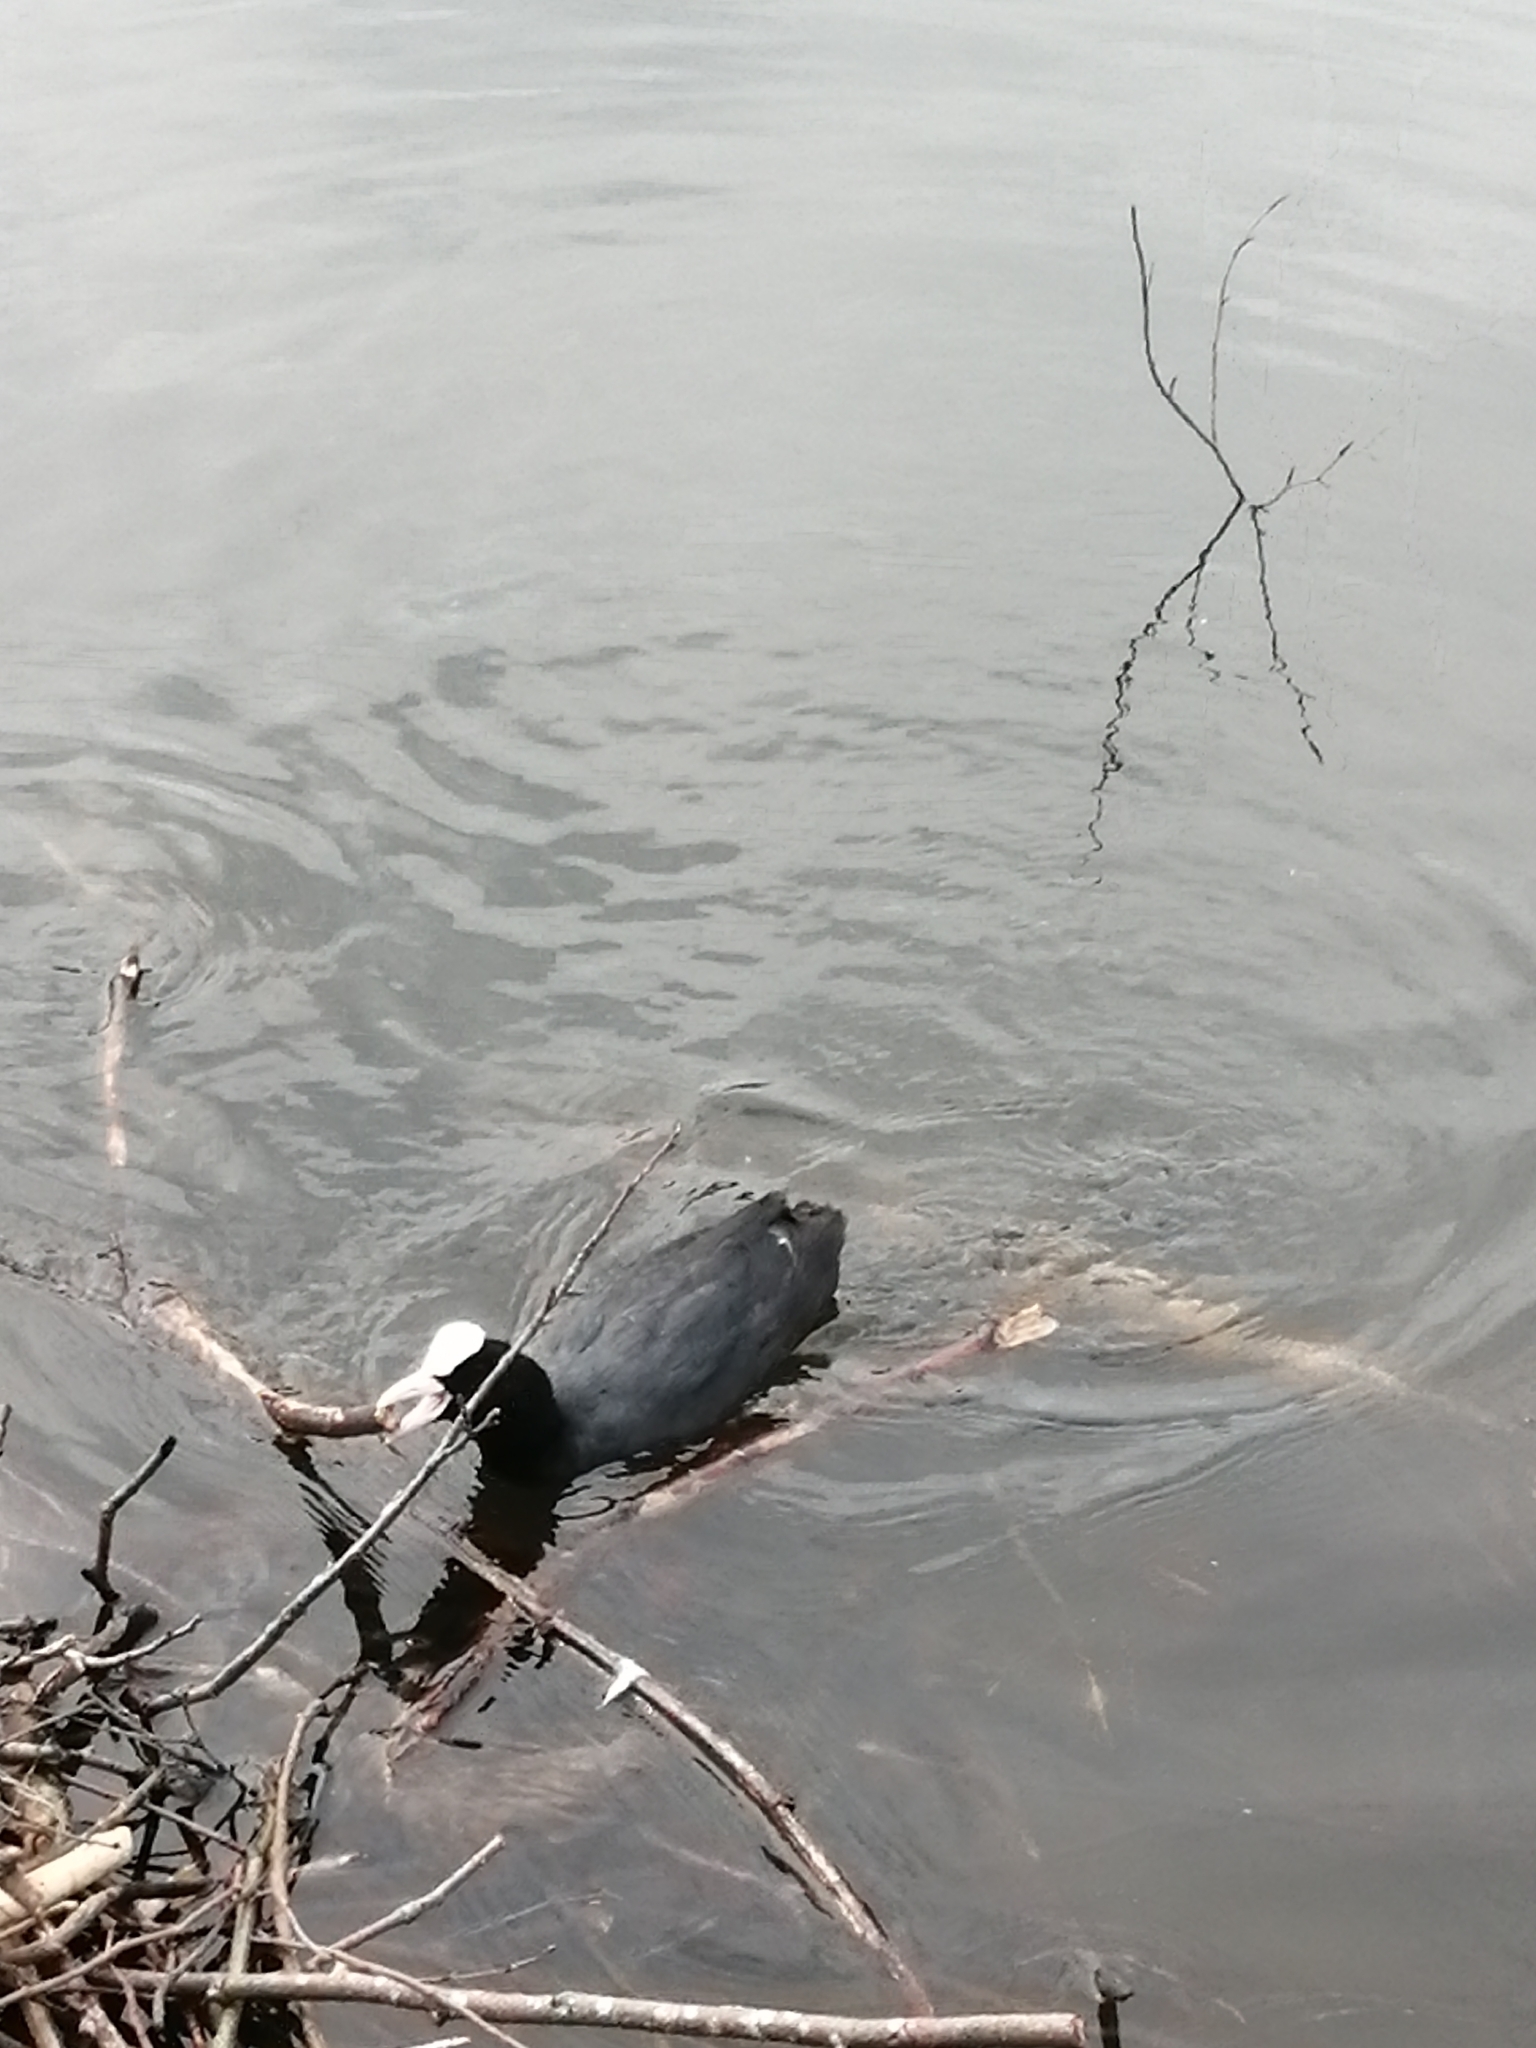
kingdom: Animalia
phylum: Chordata
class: Aves
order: Gruiformes
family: Rallidae
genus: Fulica
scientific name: Fulica atra
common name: Eurasian coot
